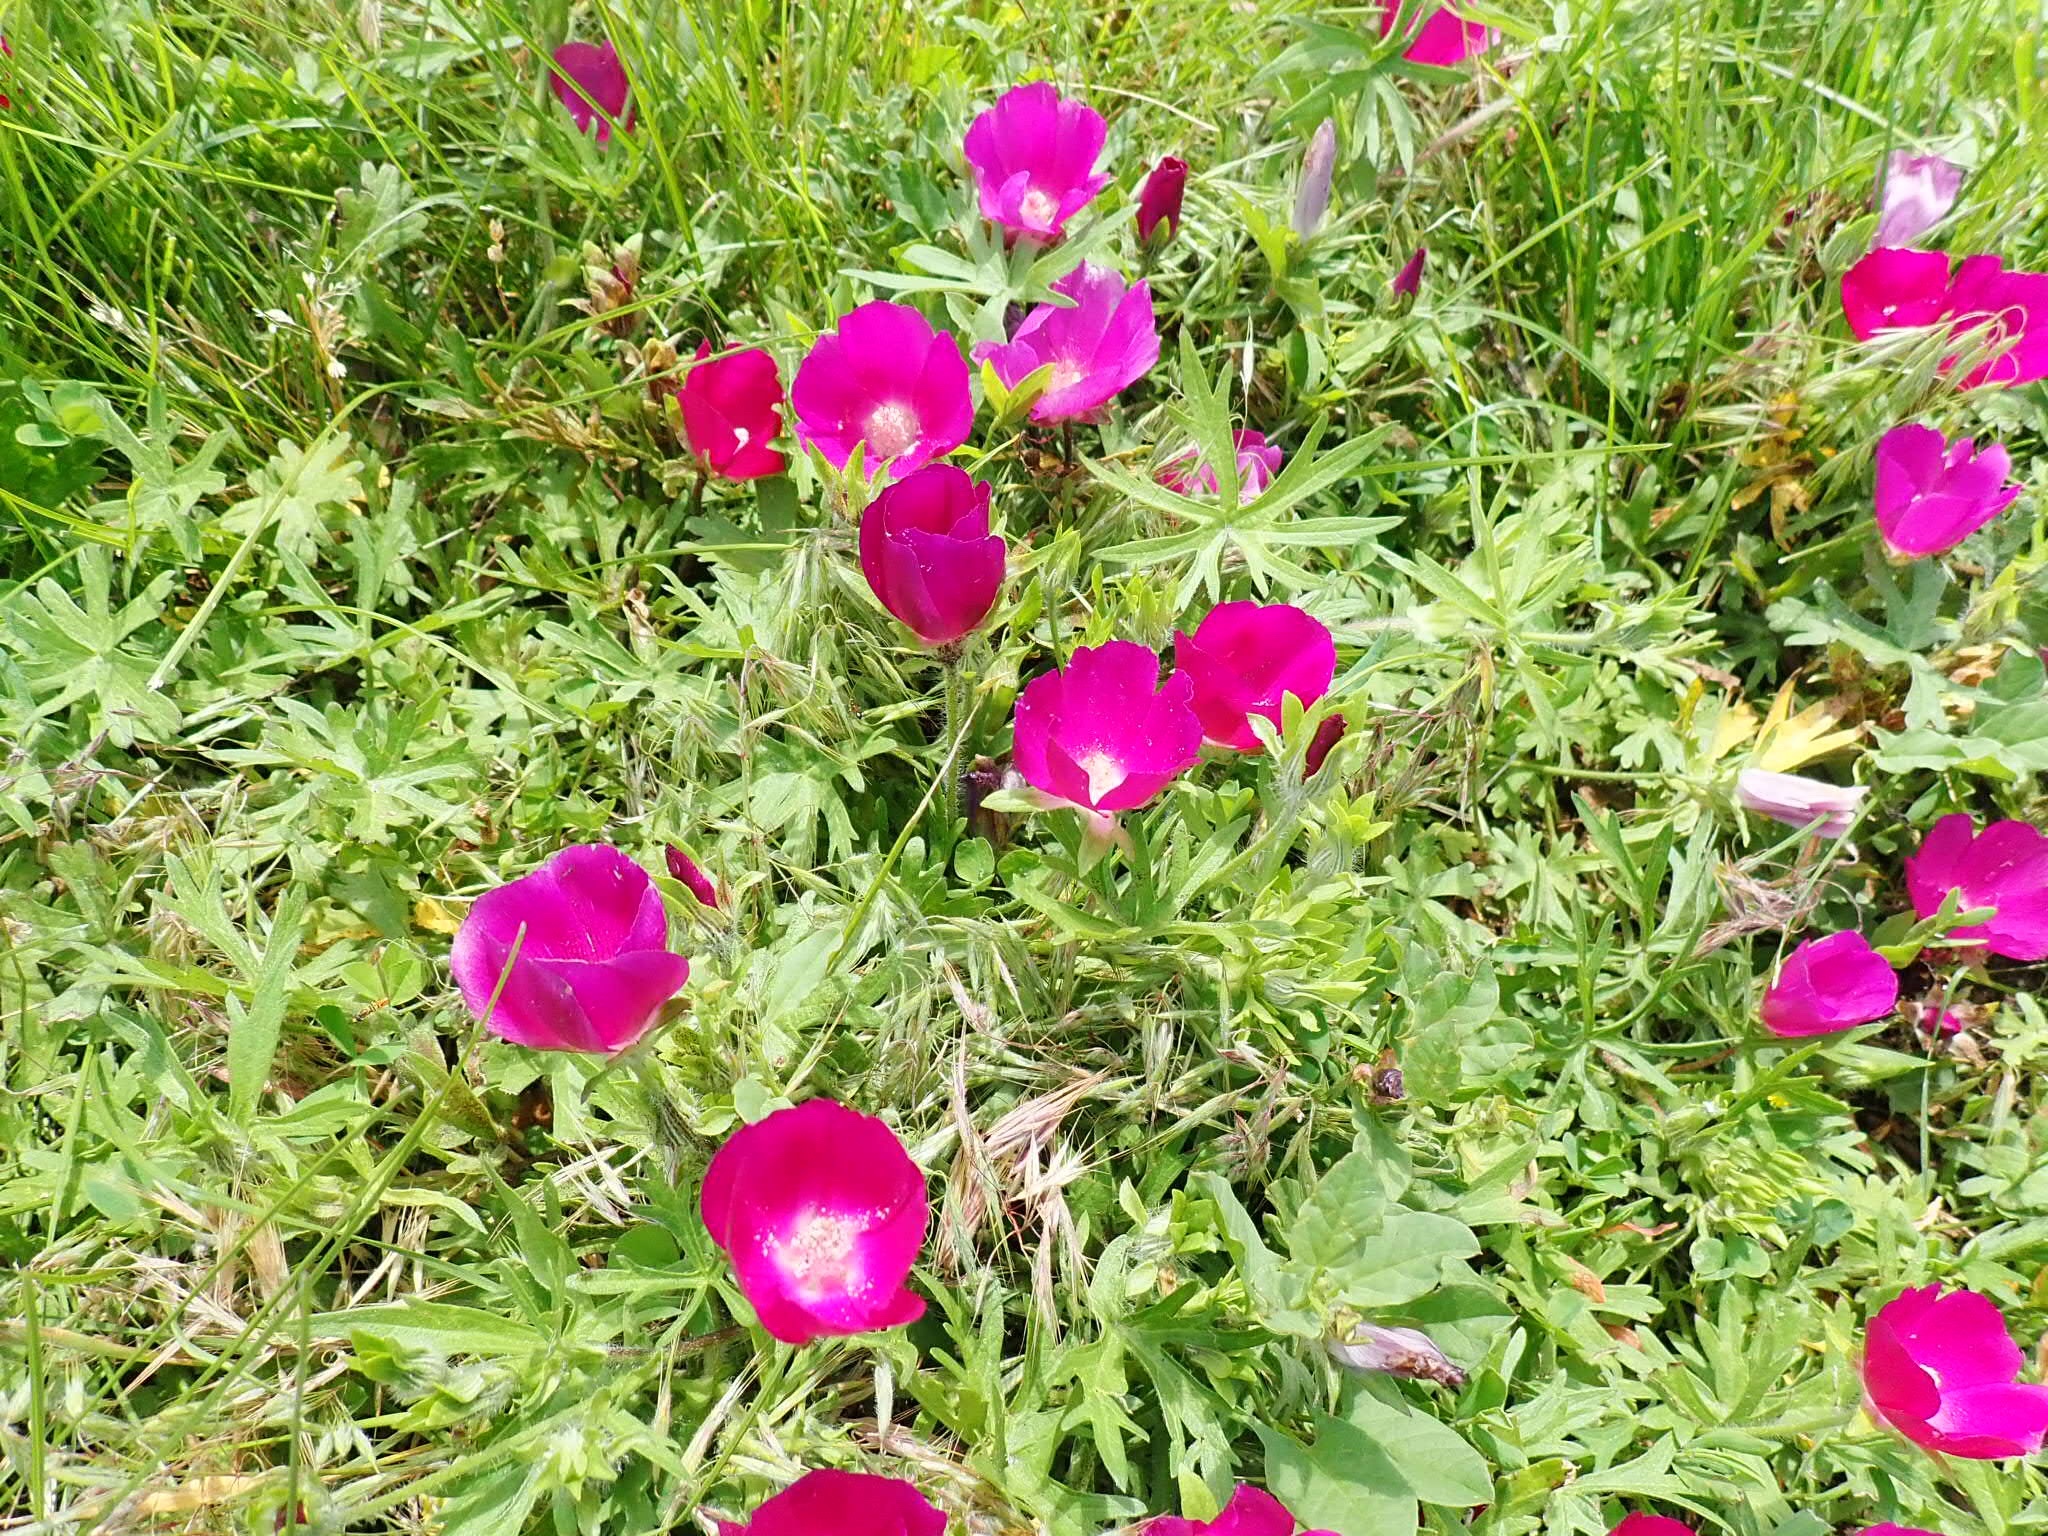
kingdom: Plantae
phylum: Tracheophyta
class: Magnoliopsida
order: Malvales
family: Malvaceae
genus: Callirhoe
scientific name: Callirhoe involucrata
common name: Purple poppy-mallow
